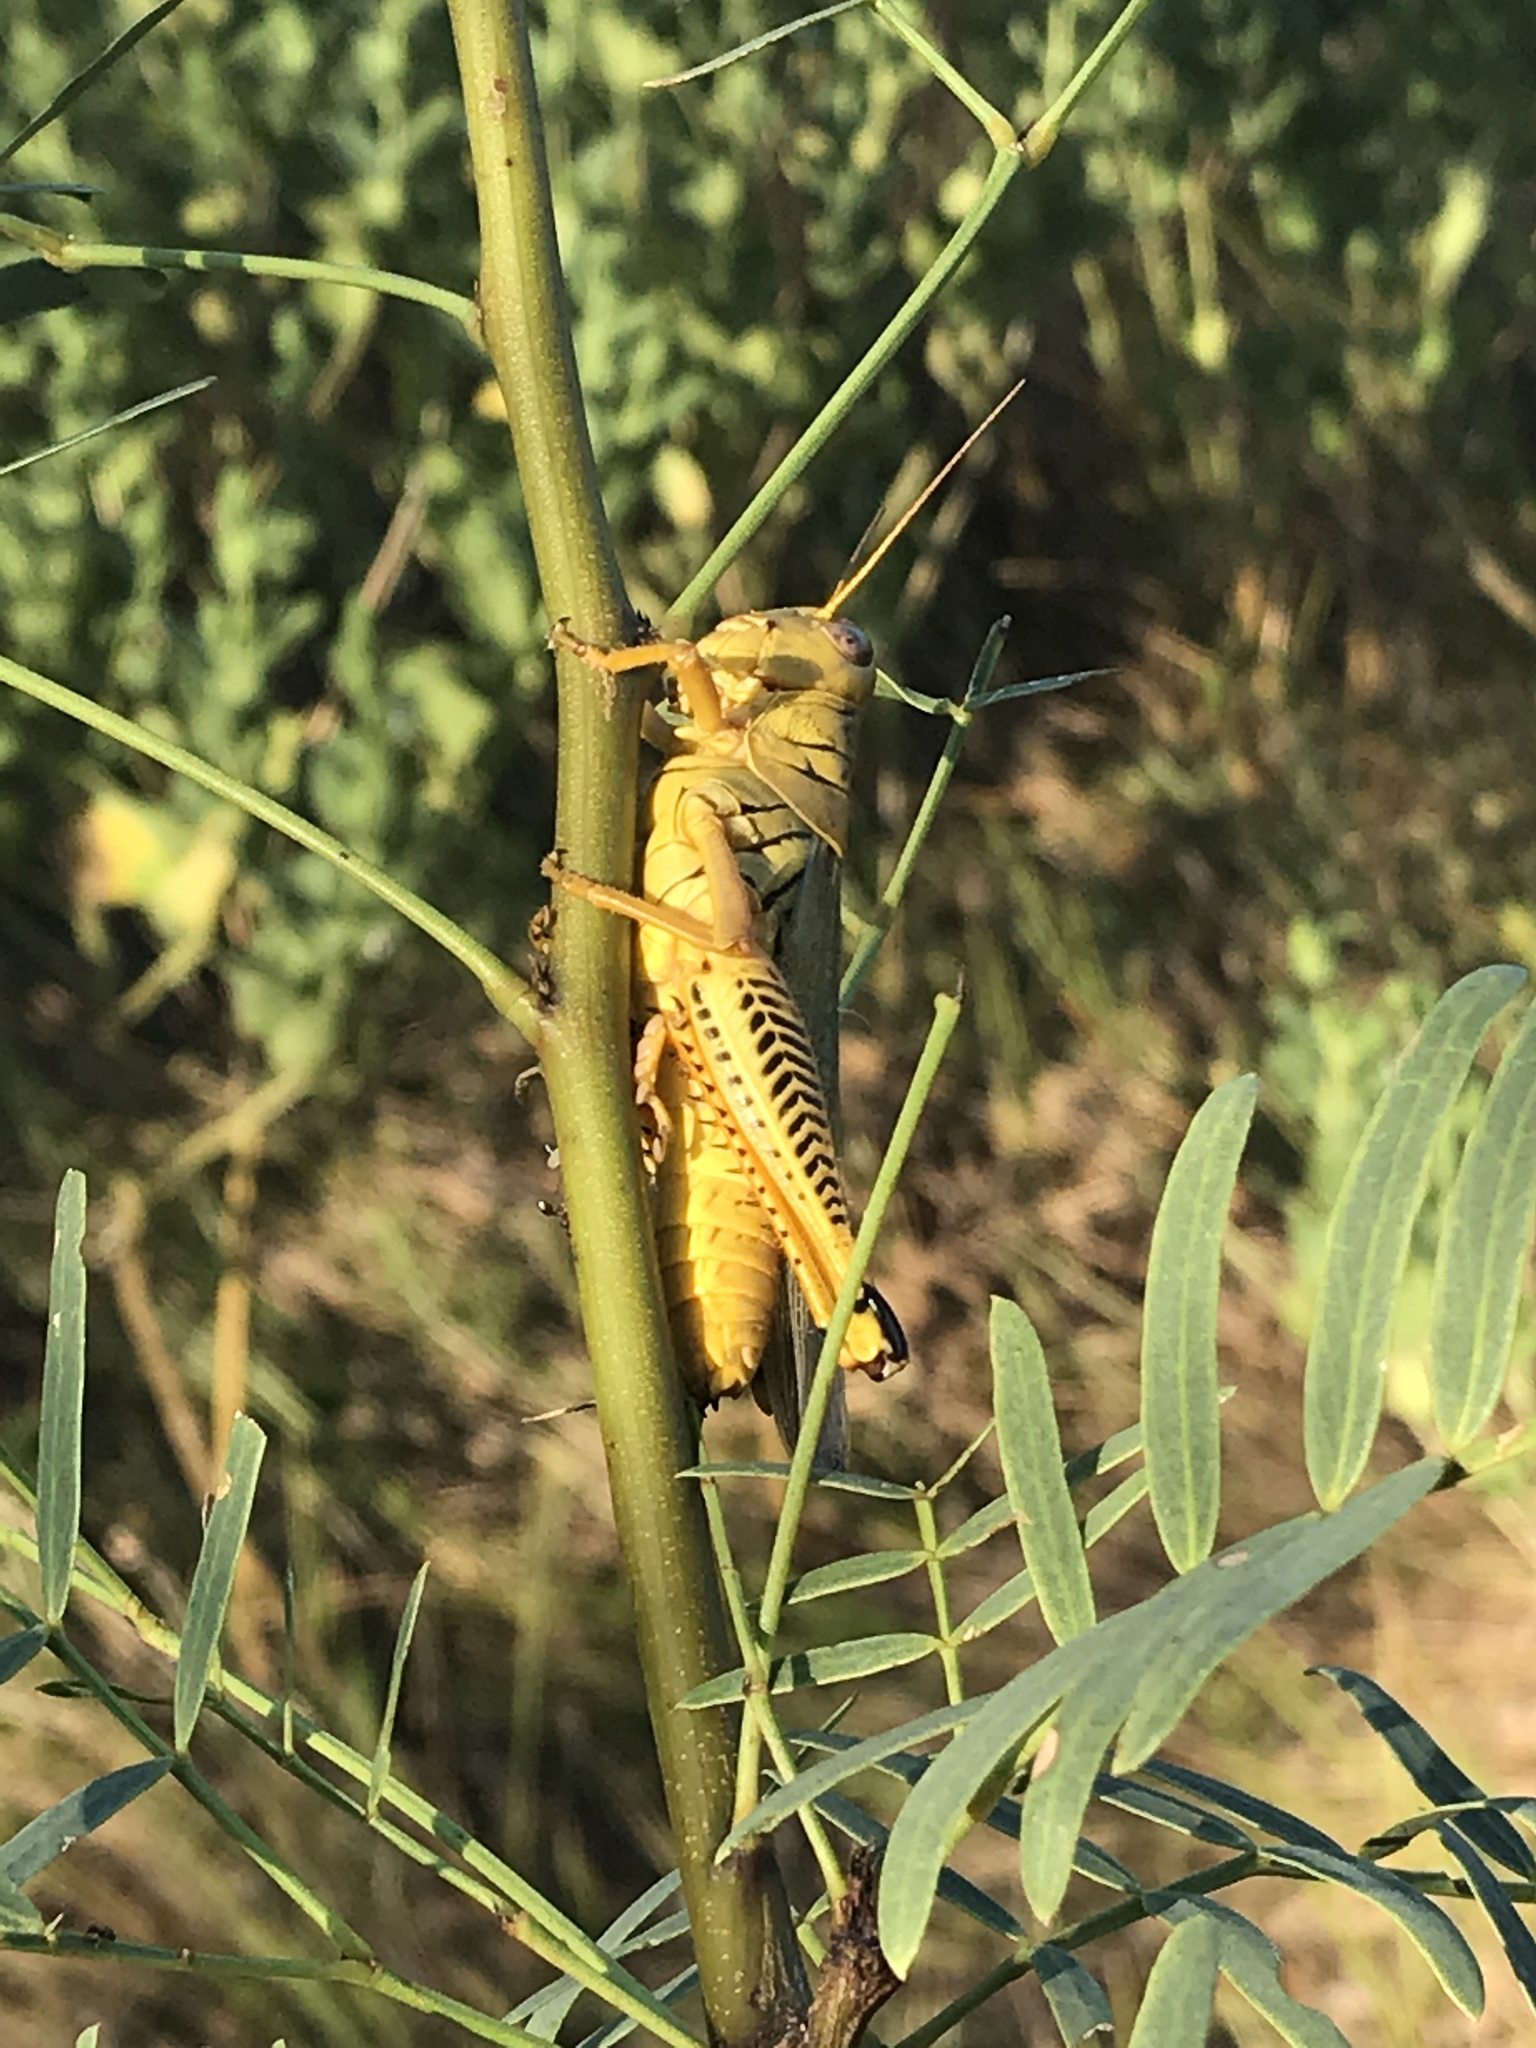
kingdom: Animalia
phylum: Arthropoda
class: Insecta
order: Orthoptera
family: Acrididae
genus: Melanoplus
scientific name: Melanoplus differentialis
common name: Differential grasshopper
